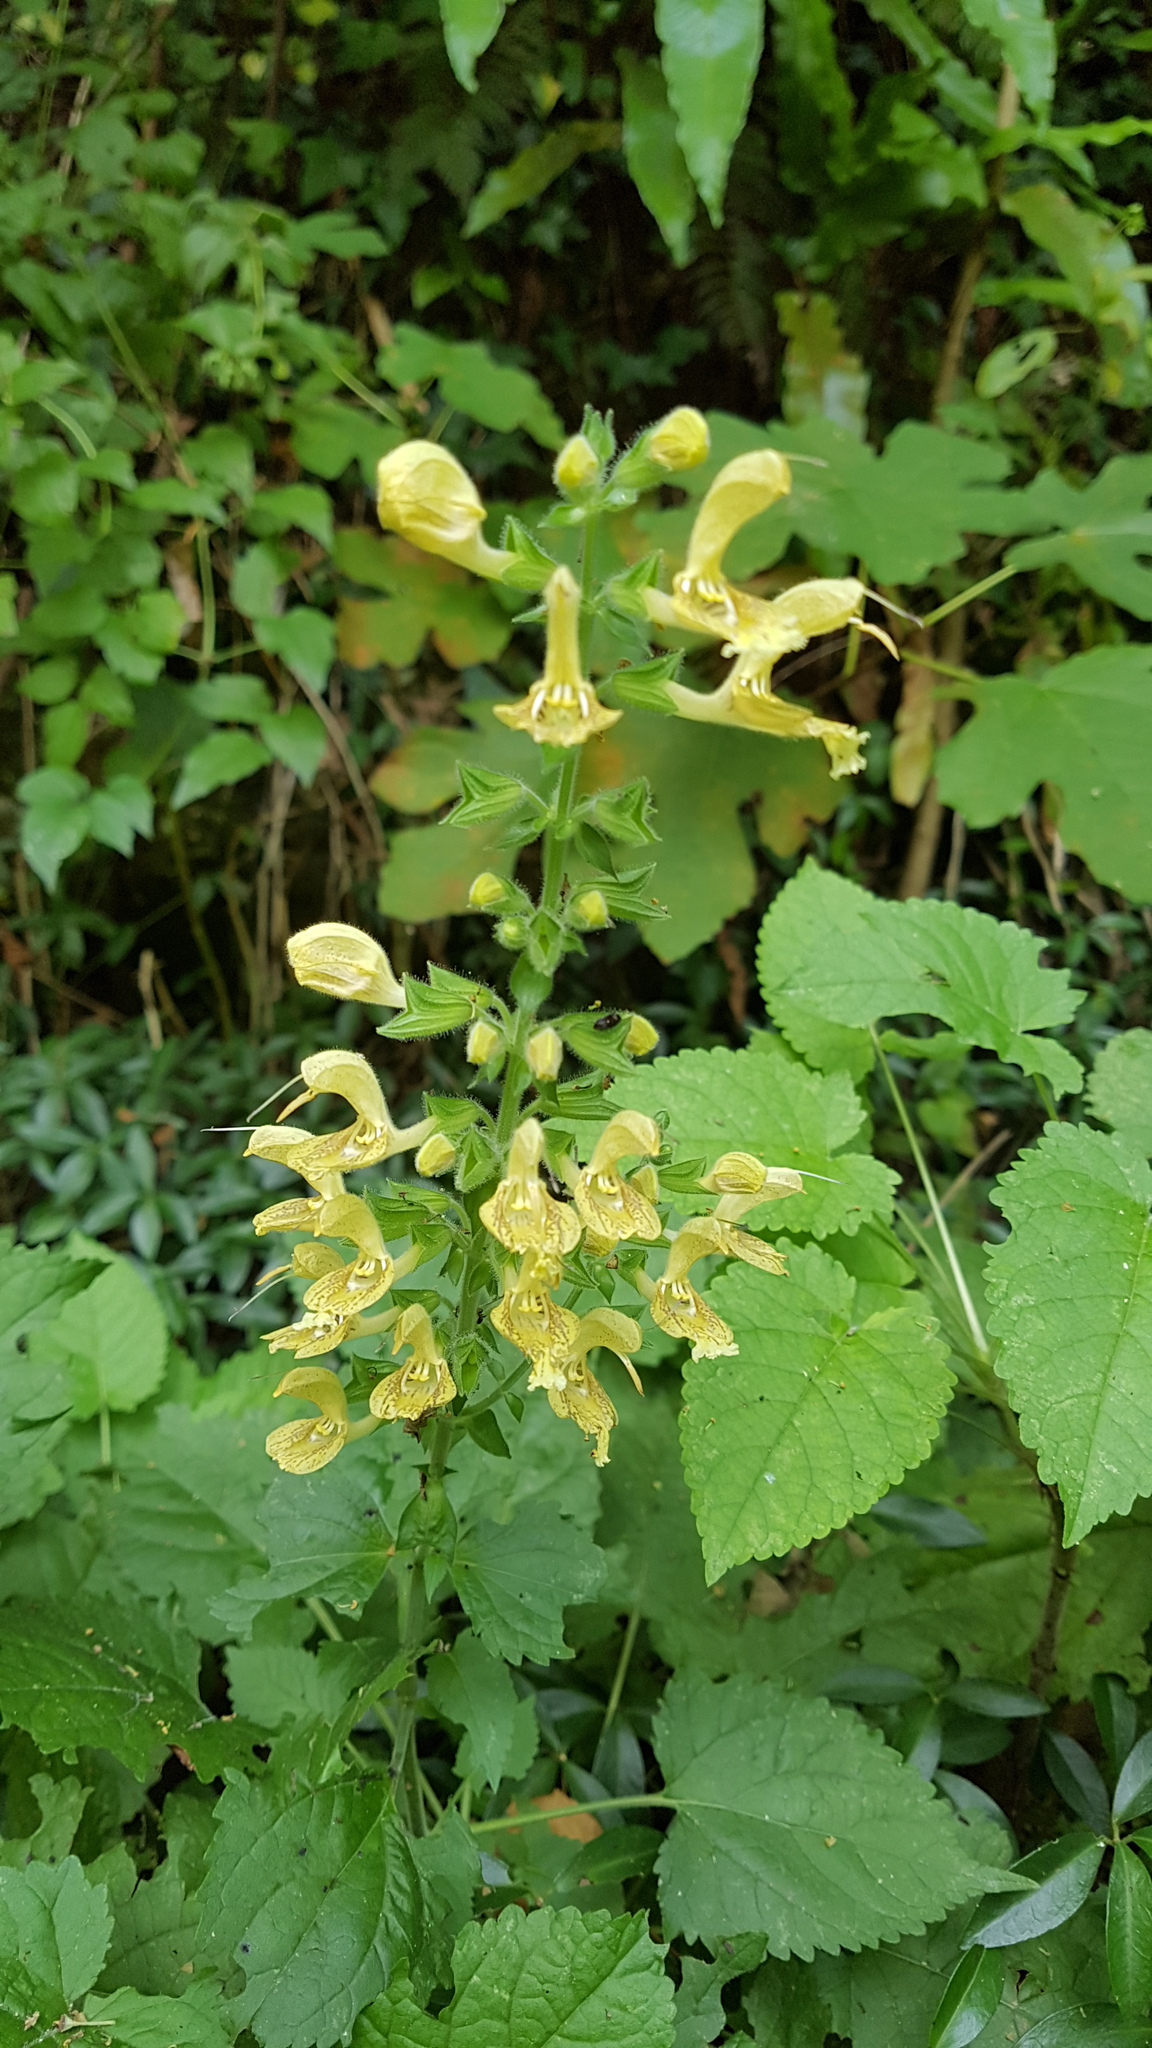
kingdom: Plantae
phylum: Tracheophyta
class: Magnoliopsida
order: Lamiales
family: Lamiaceae
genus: Salvia
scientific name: Salvia glutinosa
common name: Sticky clary
